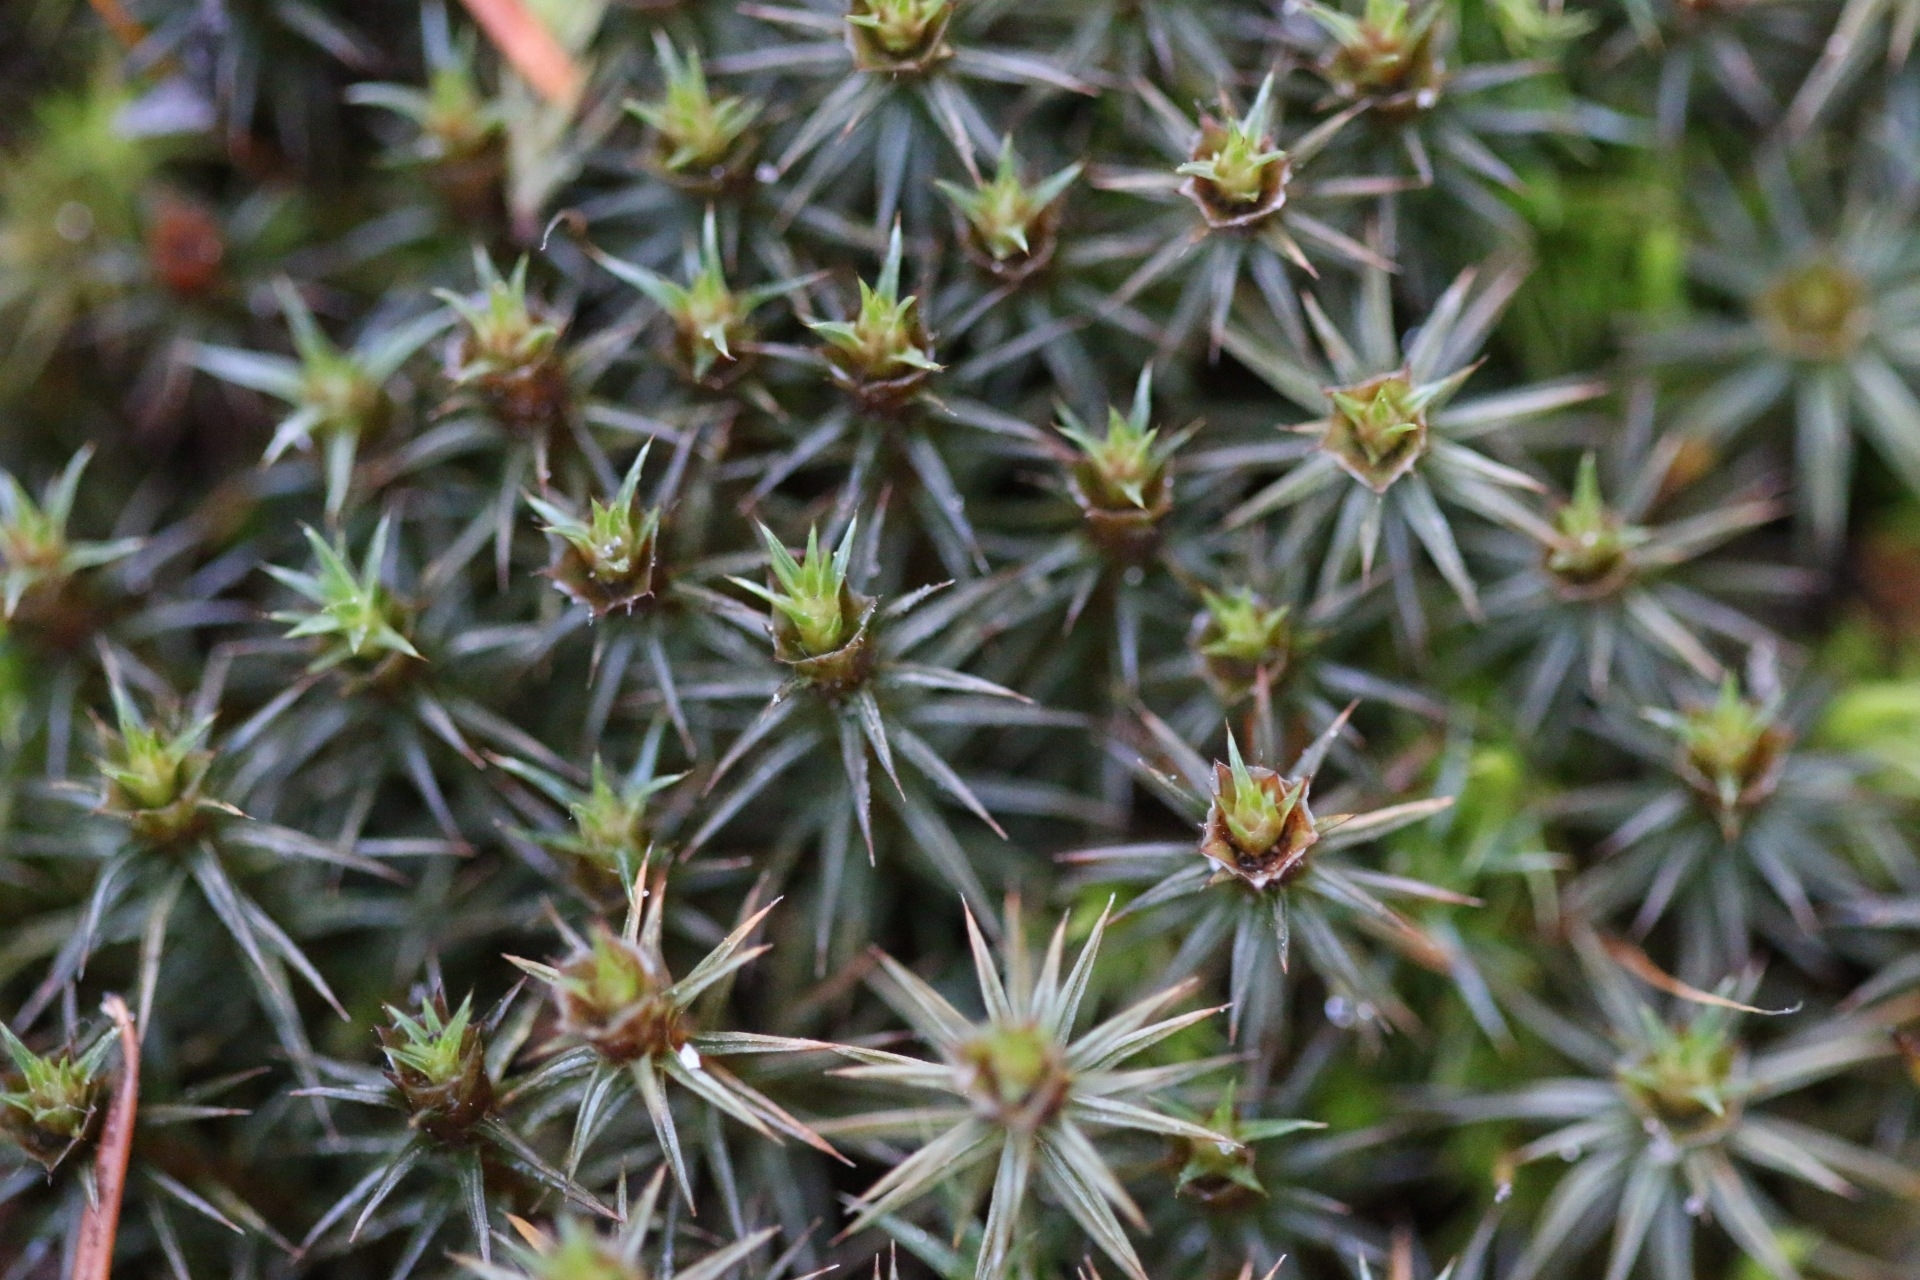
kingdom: Plantae
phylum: Bryophyta
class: Polytrichopsida
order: Polytrichales
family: Polytrichaceae
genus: Polytrichum
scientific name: Polytrichum juniperinum
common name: Juniper haircap moss
